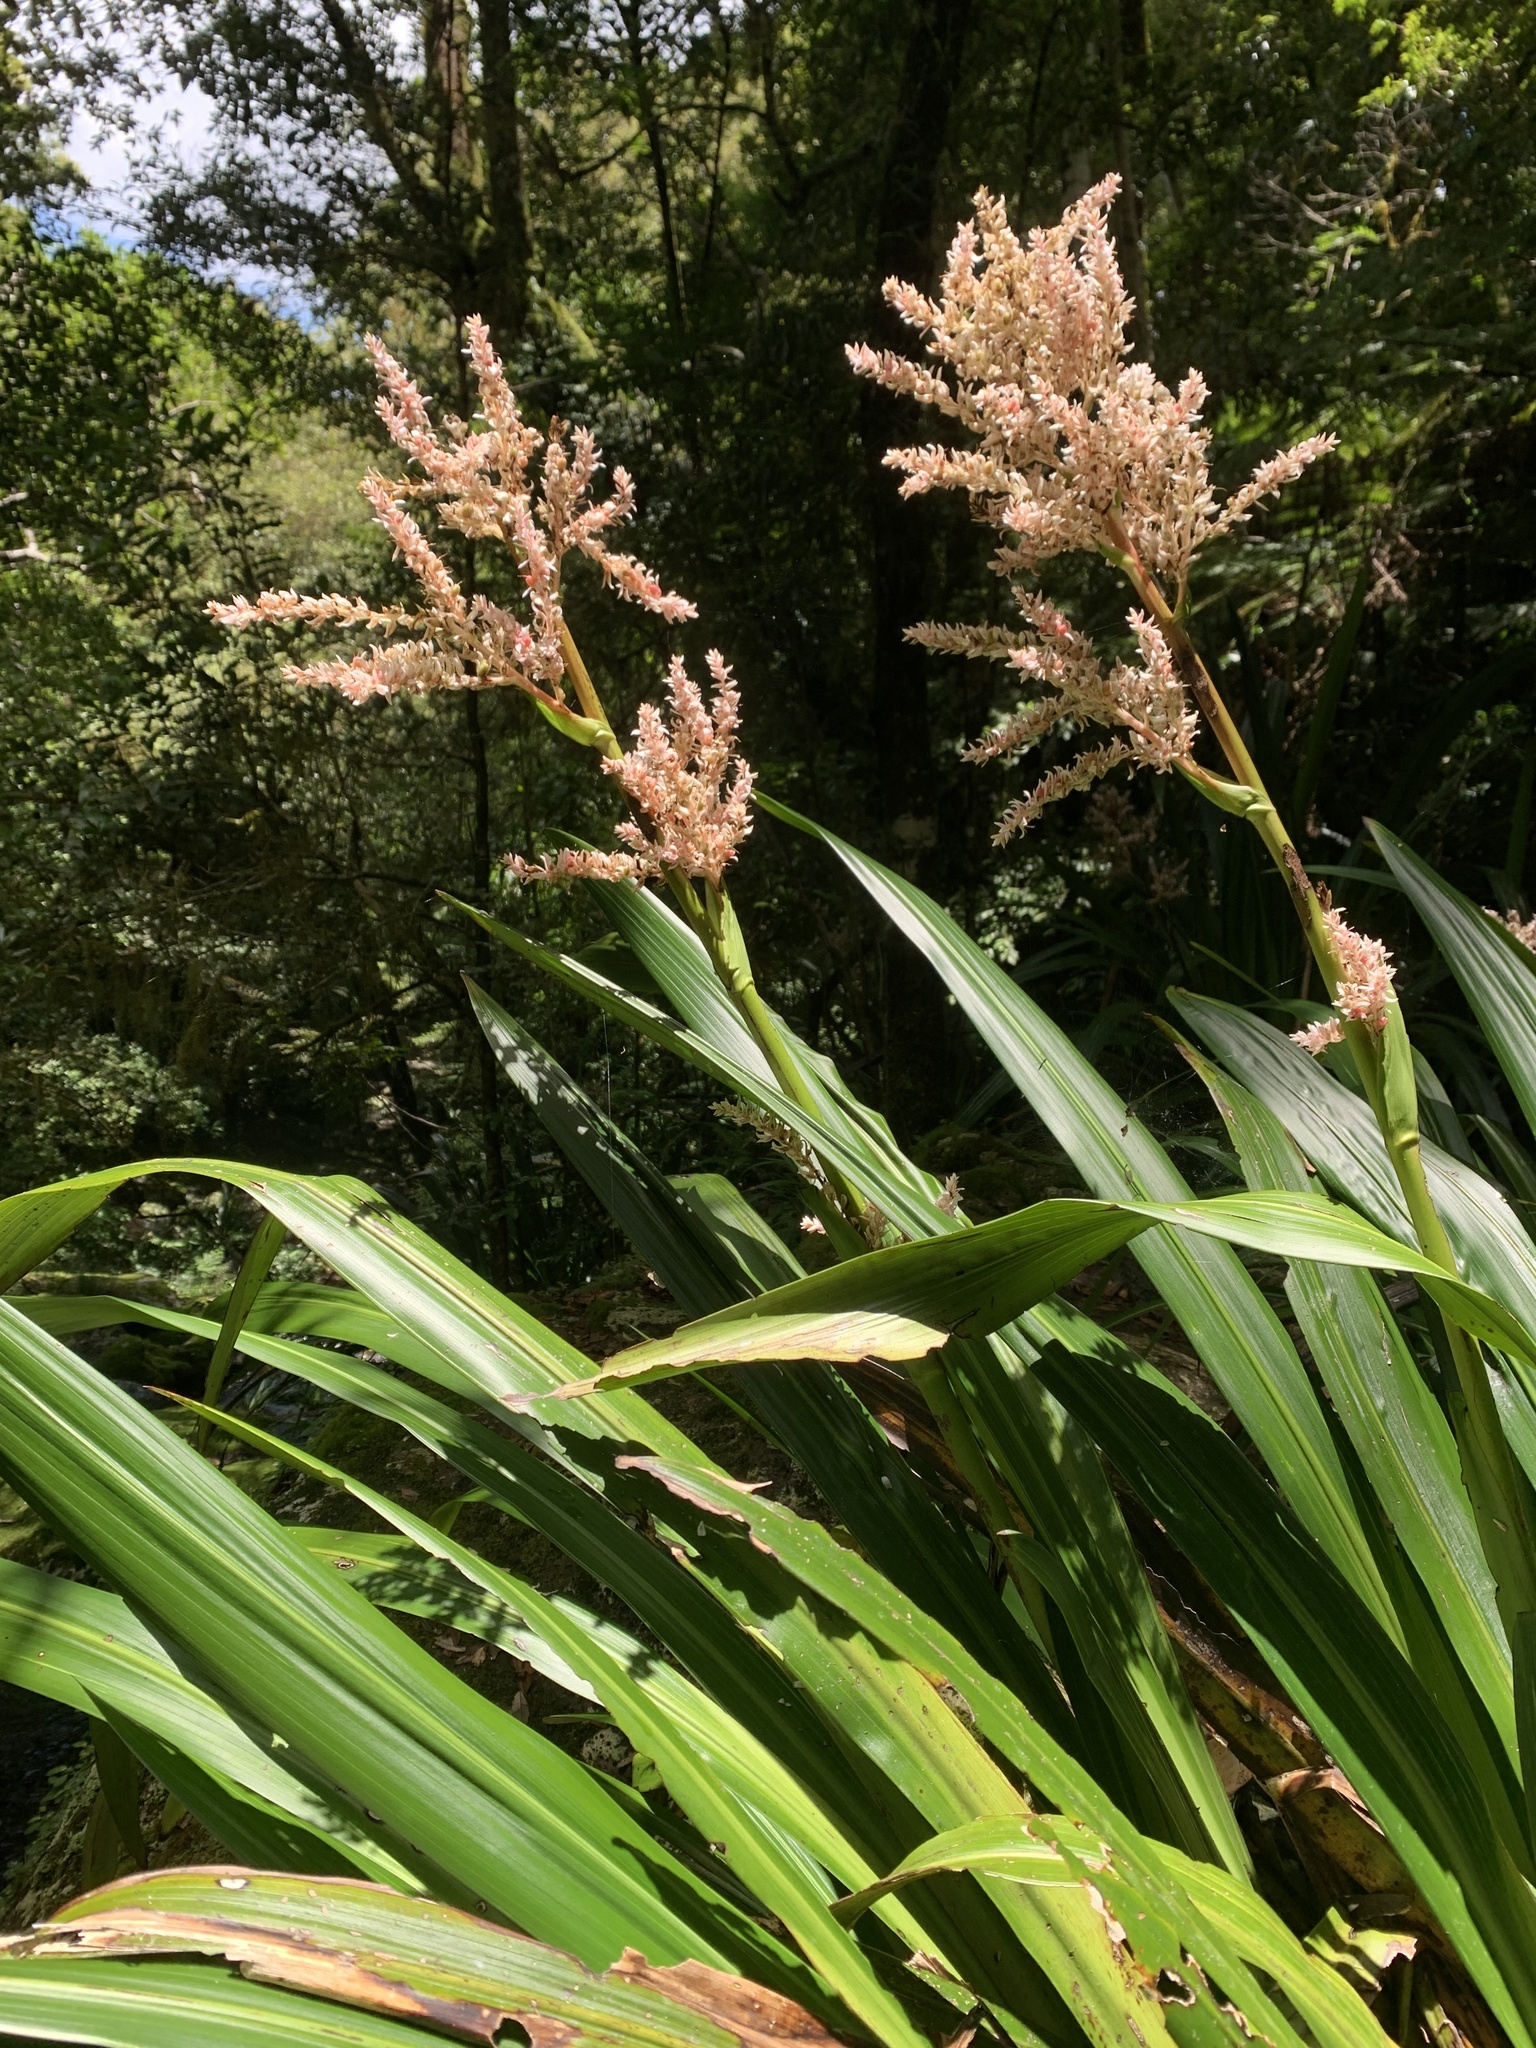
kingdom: Plantae
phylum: Tracheophyta
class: Liliopsida
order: Commelinales
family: Philydraceae
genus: Helmholtzia
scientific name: Helmholtzia glaberrima
